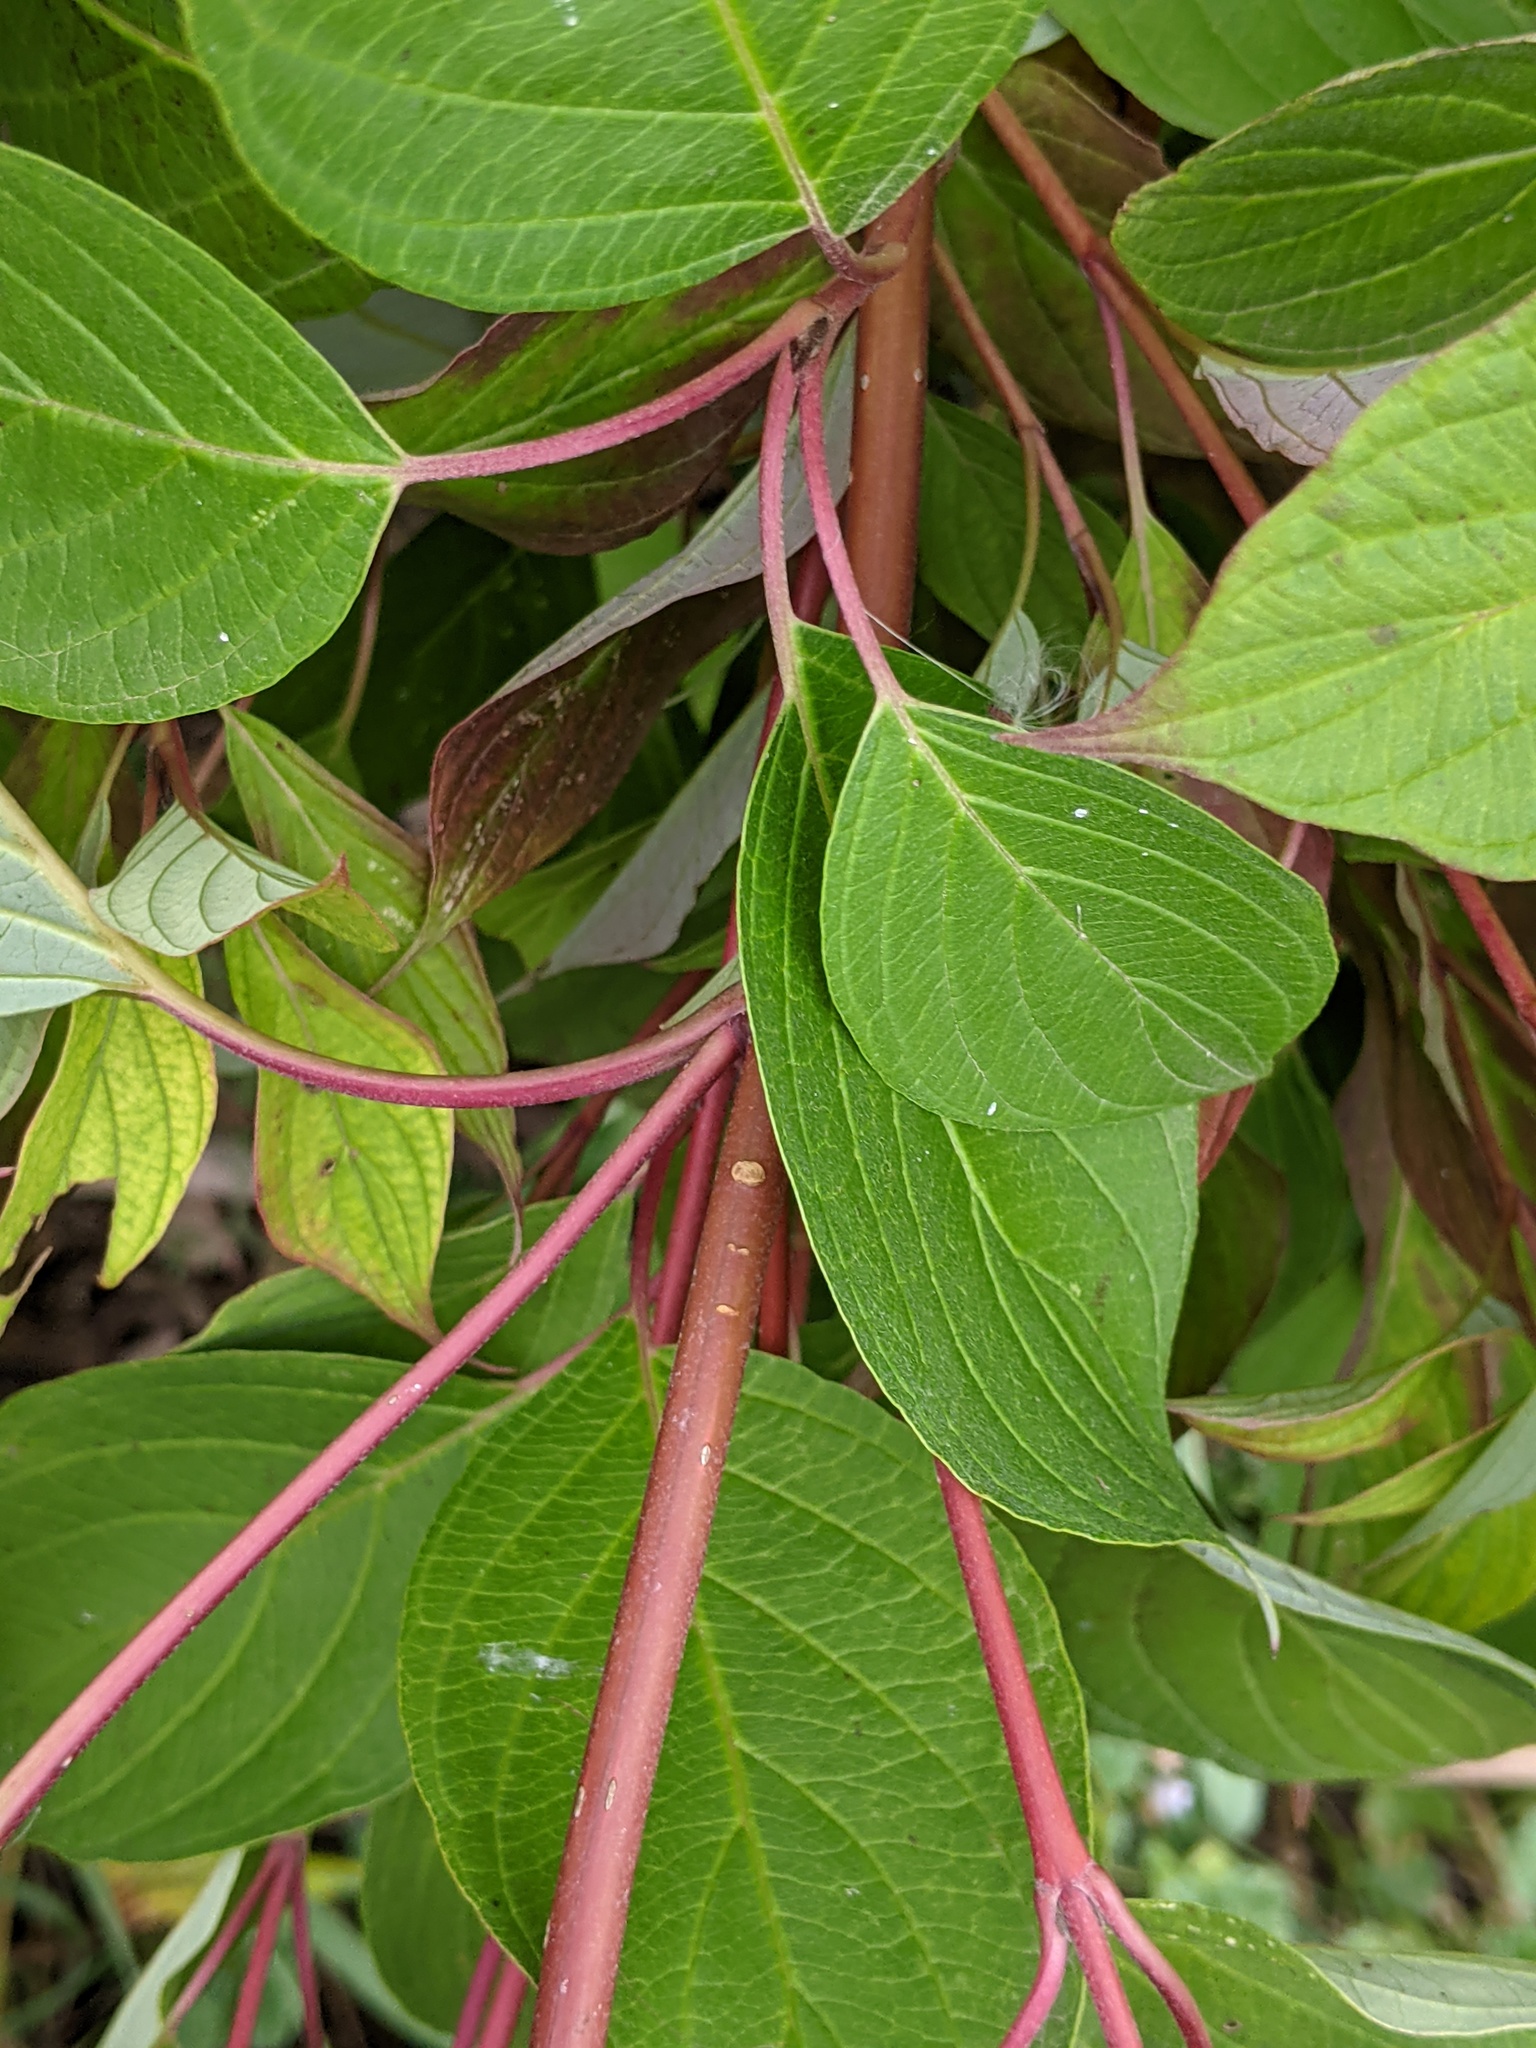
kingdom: Plantae
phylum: Tracheophyta
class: Magnoliopsida
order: Cornales
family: Cornaceae
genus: Cornus
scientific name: Cornus sericea
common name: Red-osier dogwood
